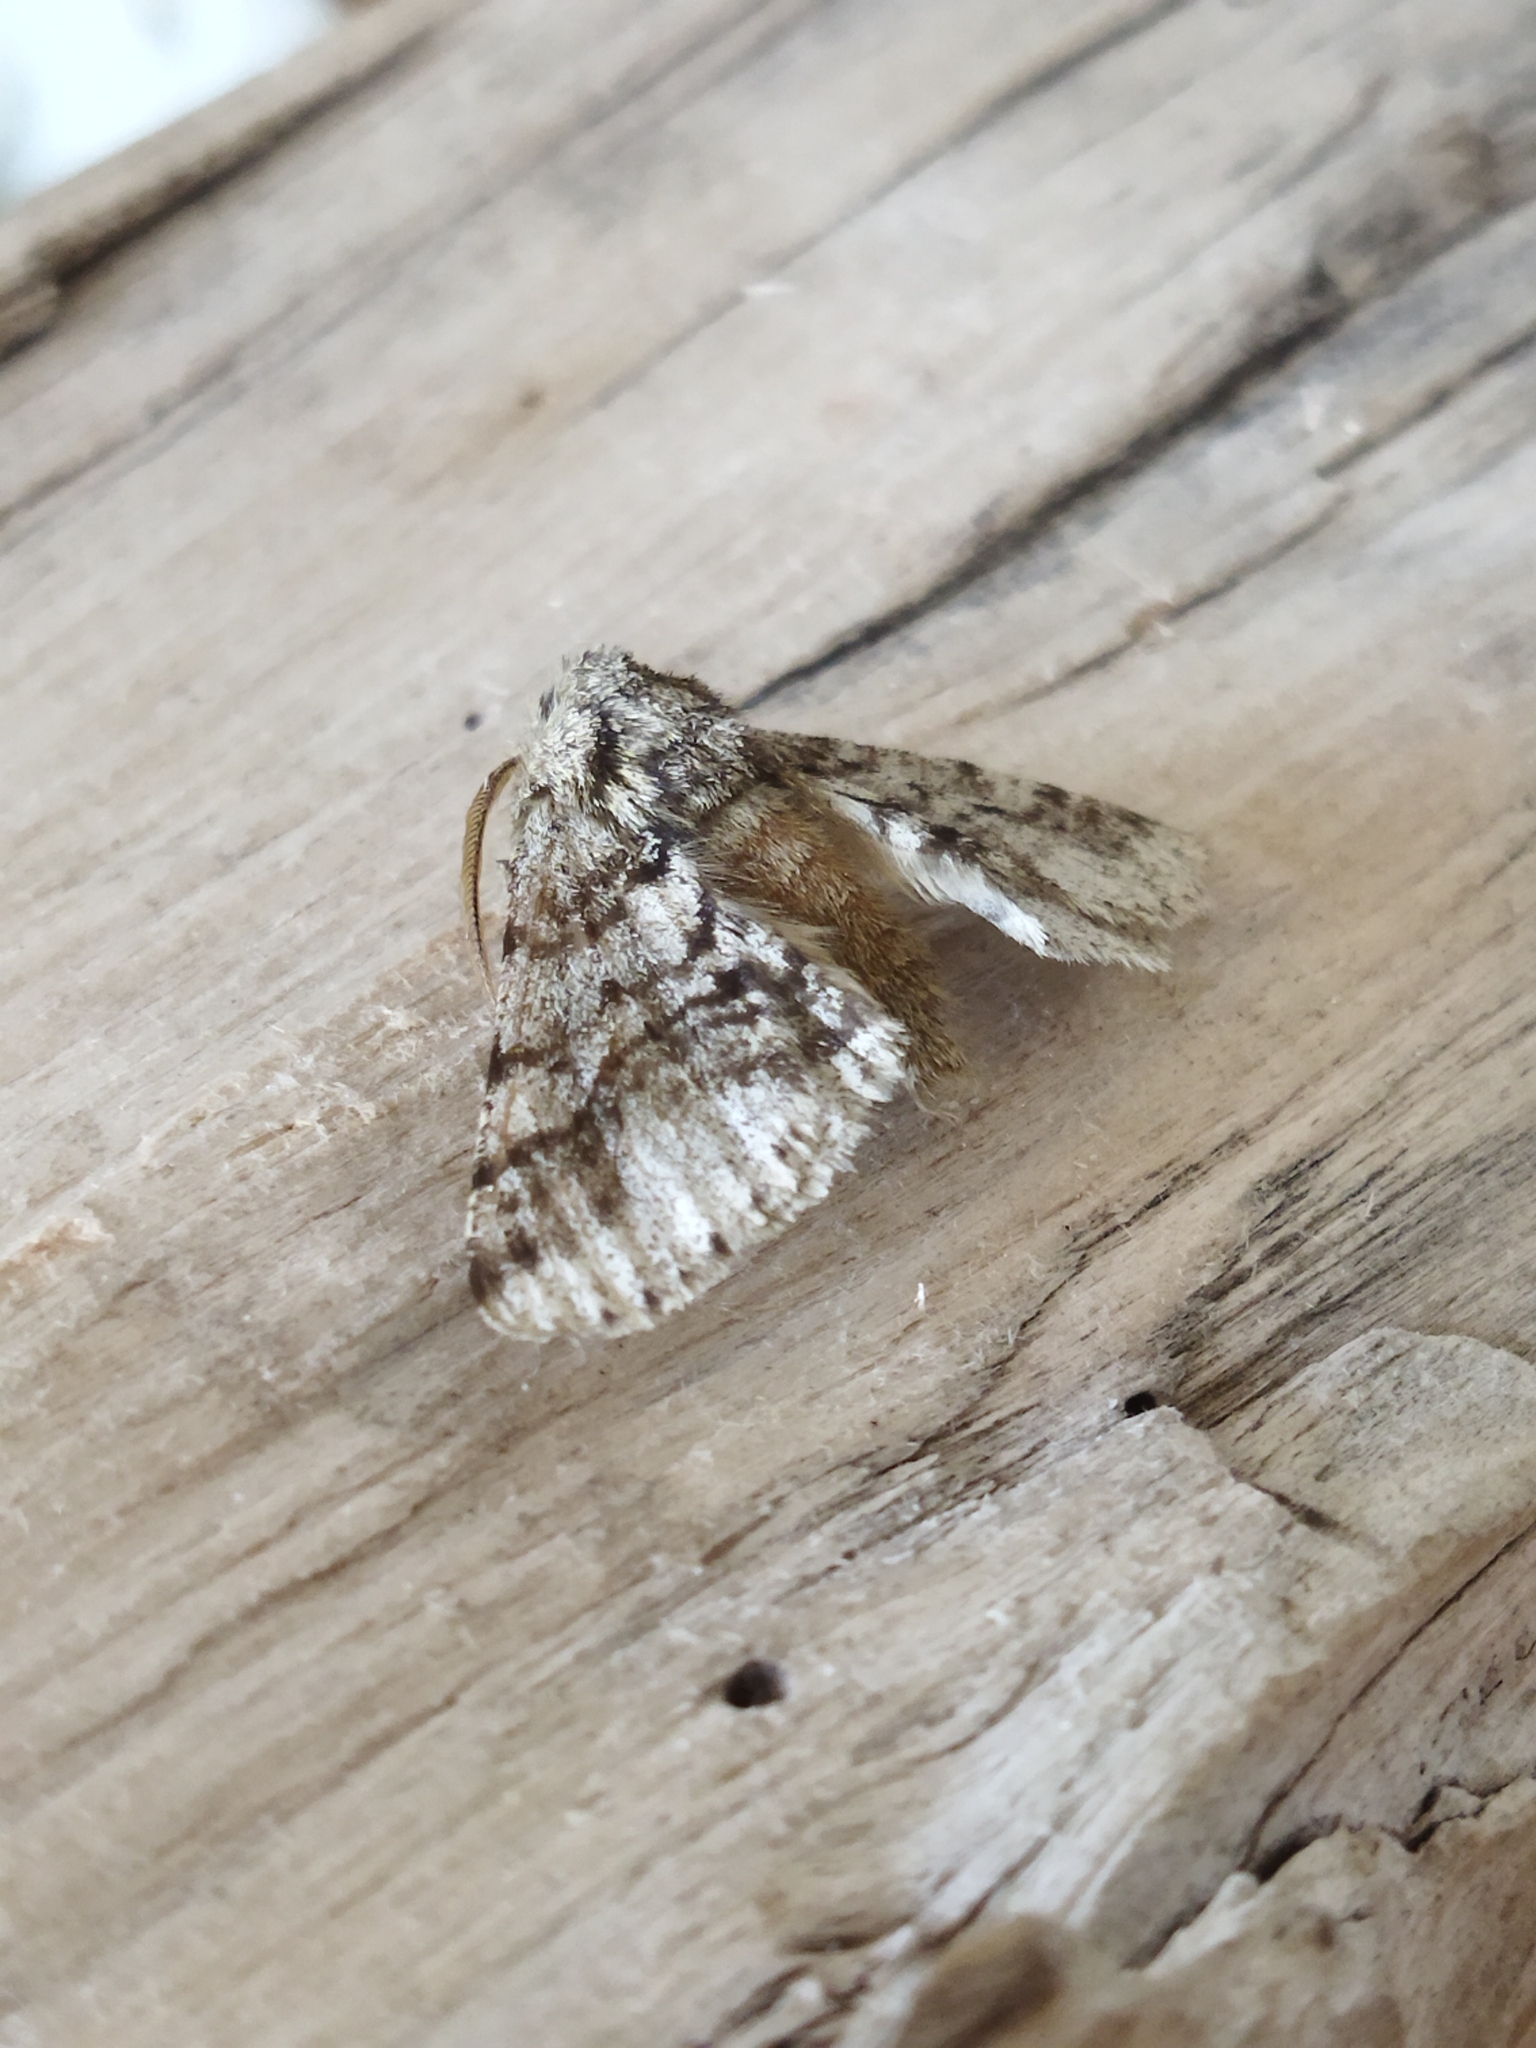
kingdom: Animalia
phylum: Arthropoda
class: Insecta
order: Lepidoptera
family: Geometridae
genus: Lycia
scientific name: Lycia hirtaria
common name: Brindled beauty
